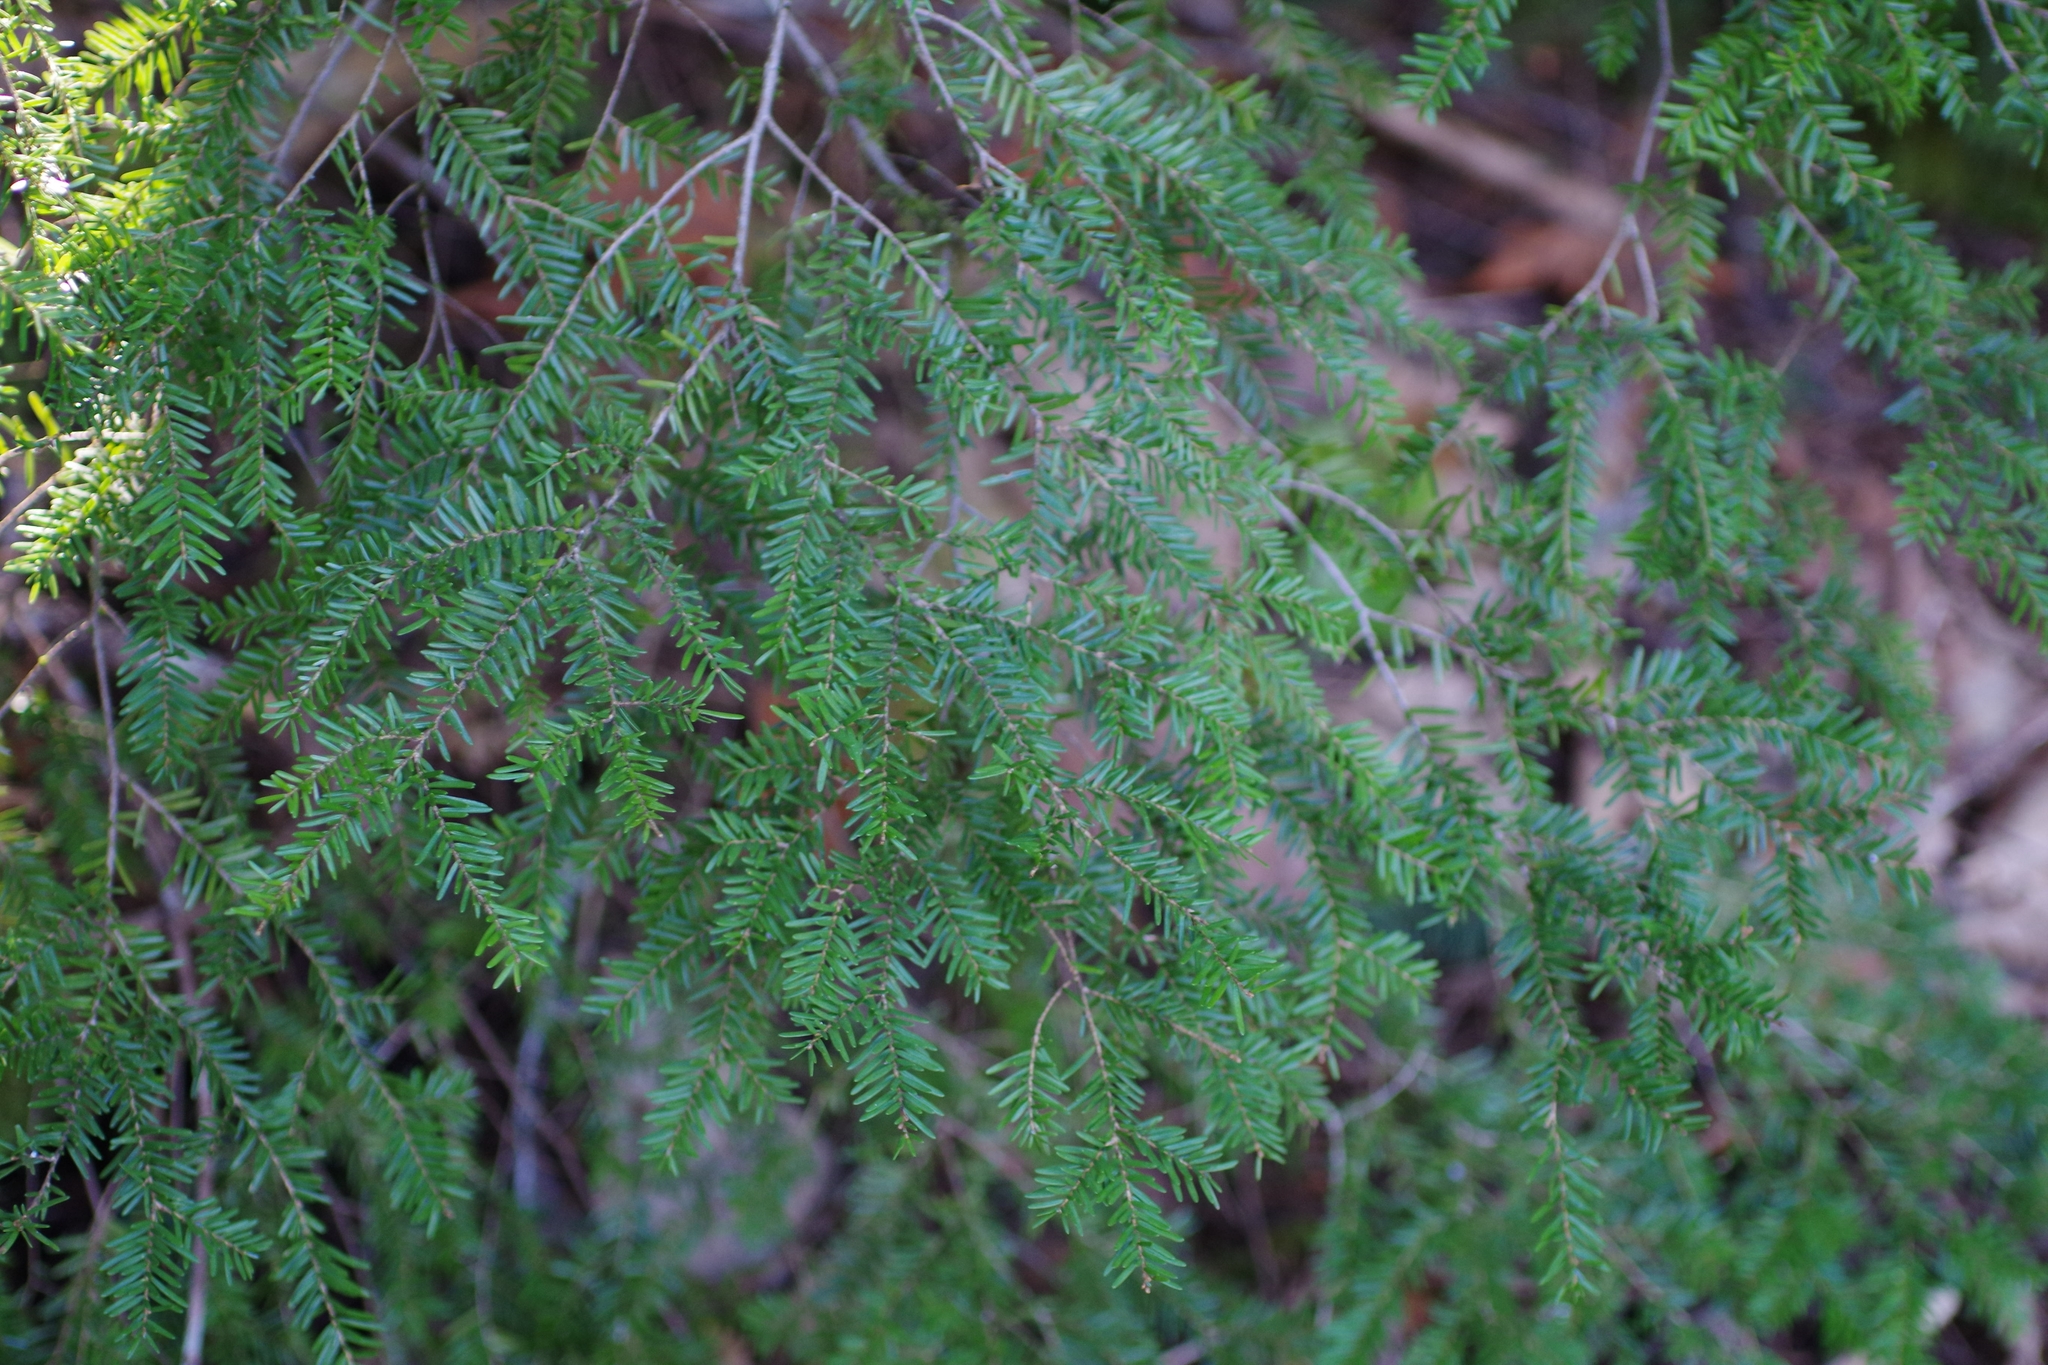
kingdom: Plantae
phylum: Tracheophyta
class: Pinopsida
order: Pinales
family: Pinaceae
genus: Tsuga
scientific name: Tsuga heterophylla
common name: Western hemlock
